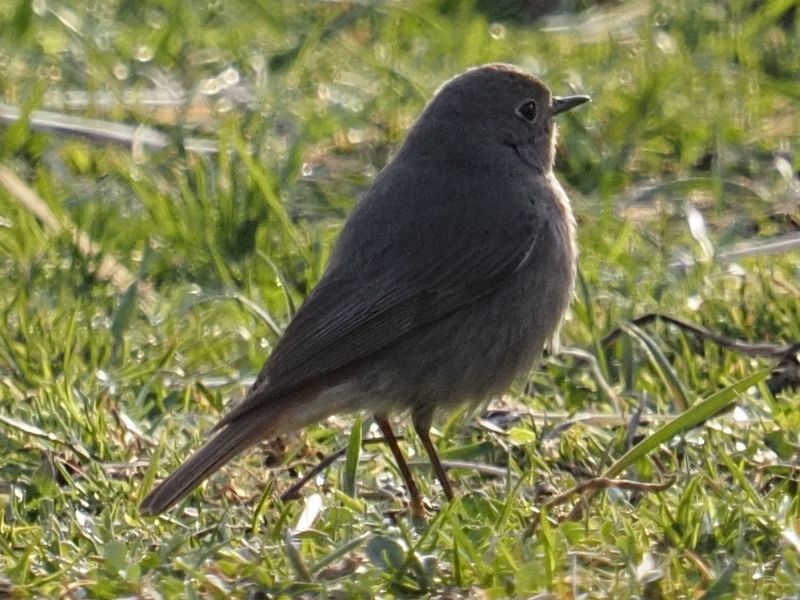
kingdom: Animalia
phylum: Chordata
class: Aves
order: Passeriformes
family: Muscicapidae
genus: Phoenicurus
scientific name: Phoenicurus ochruros
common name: Black redstart
